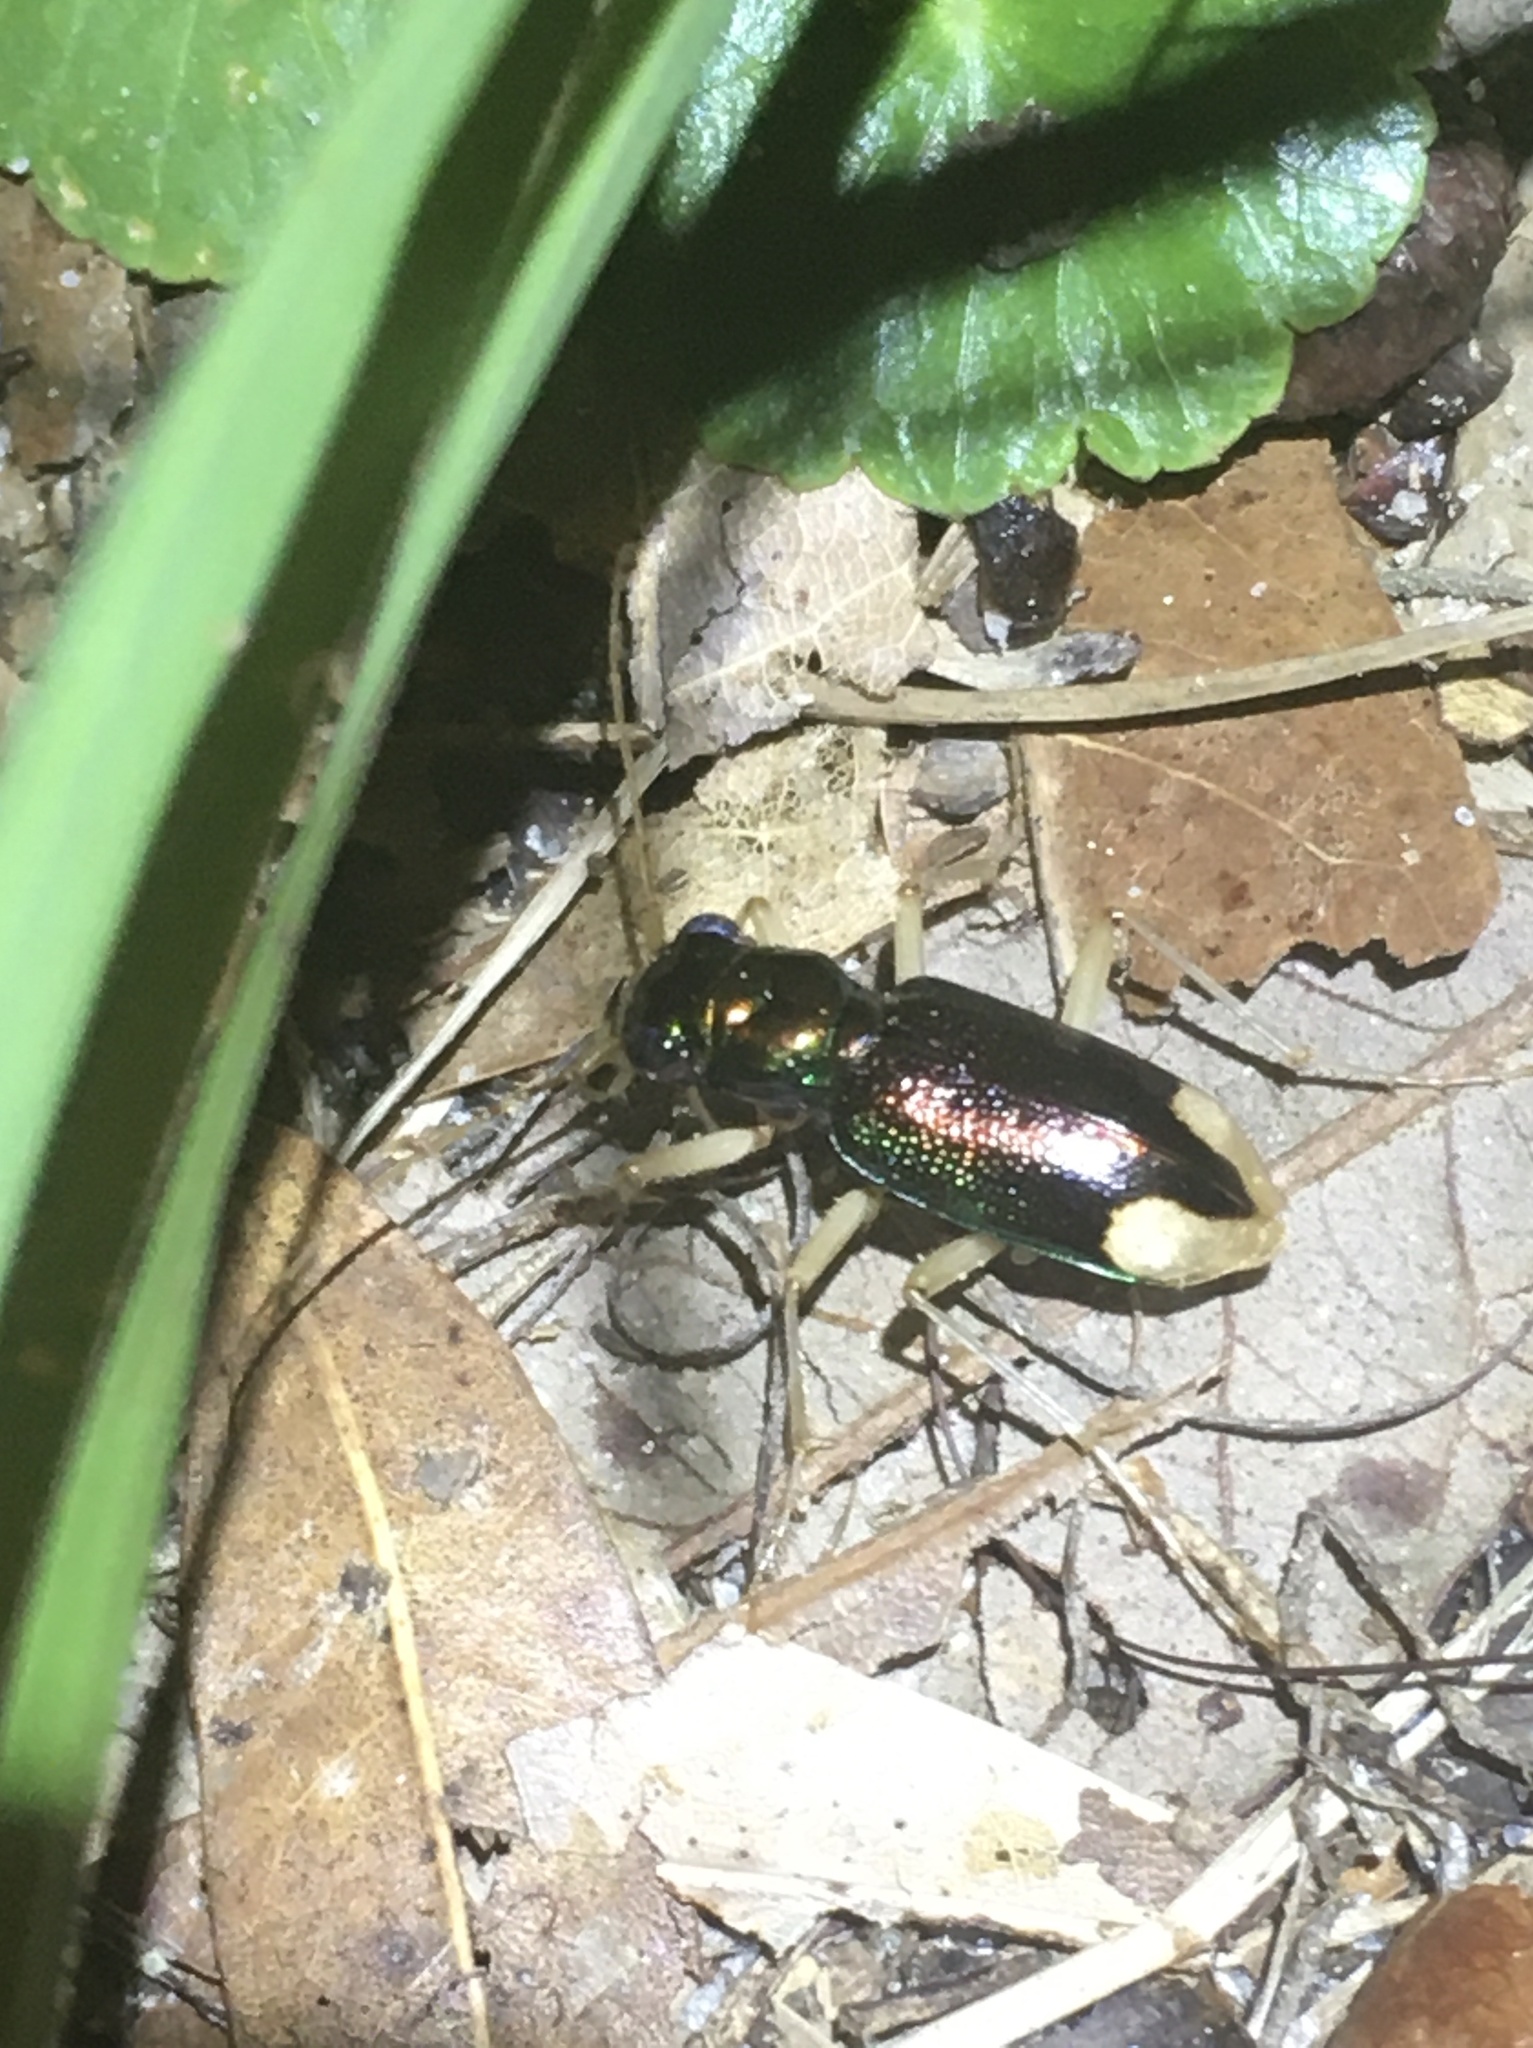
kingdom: Animalia
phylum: Arthropoda
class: Insecta
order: Coleoptera
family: Carabidae
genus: Tetracha
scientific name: Tetracha carolina
